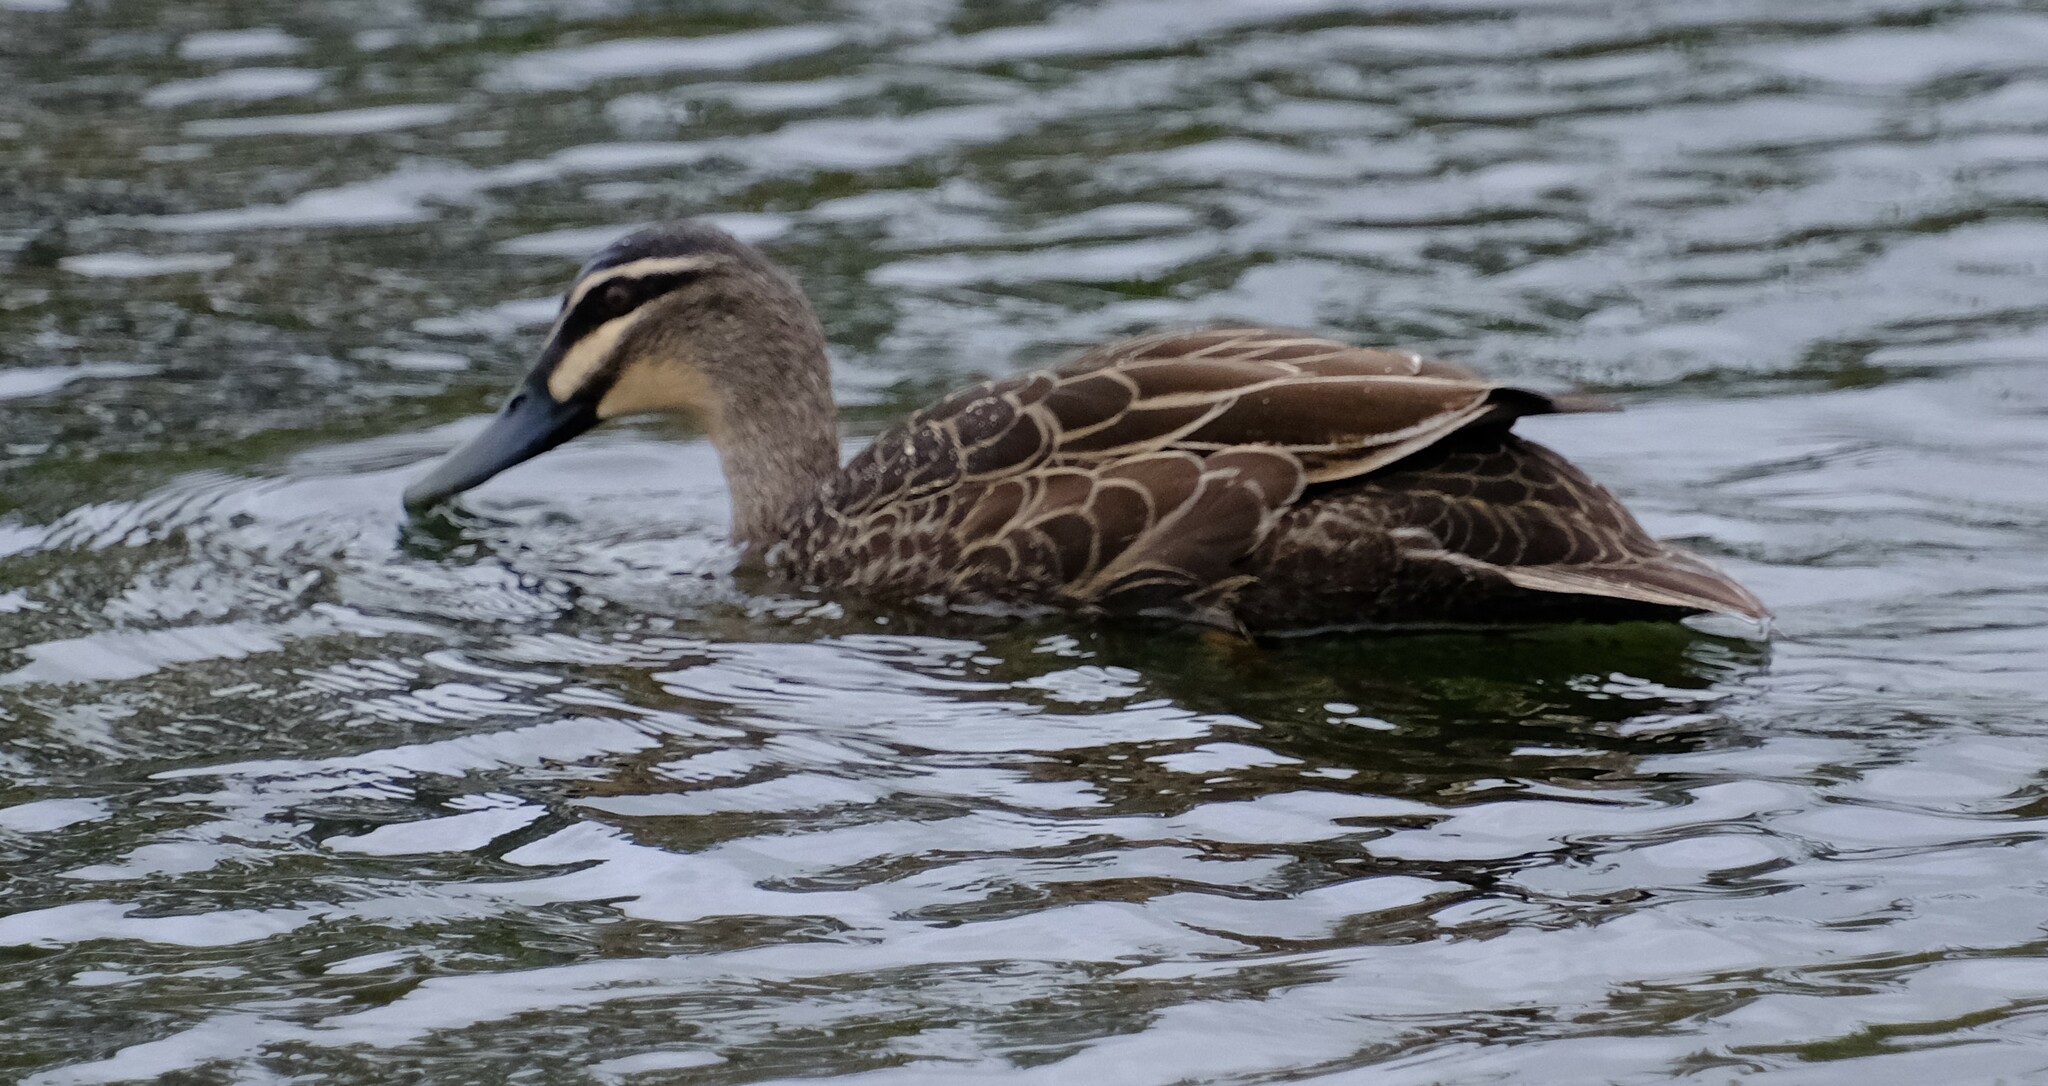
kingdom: Animalia
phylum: Chordata
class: Aves
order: Anseriformes
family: Anatidae
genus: Anas
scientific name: Anas superciliosa
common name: Pacific black duck
